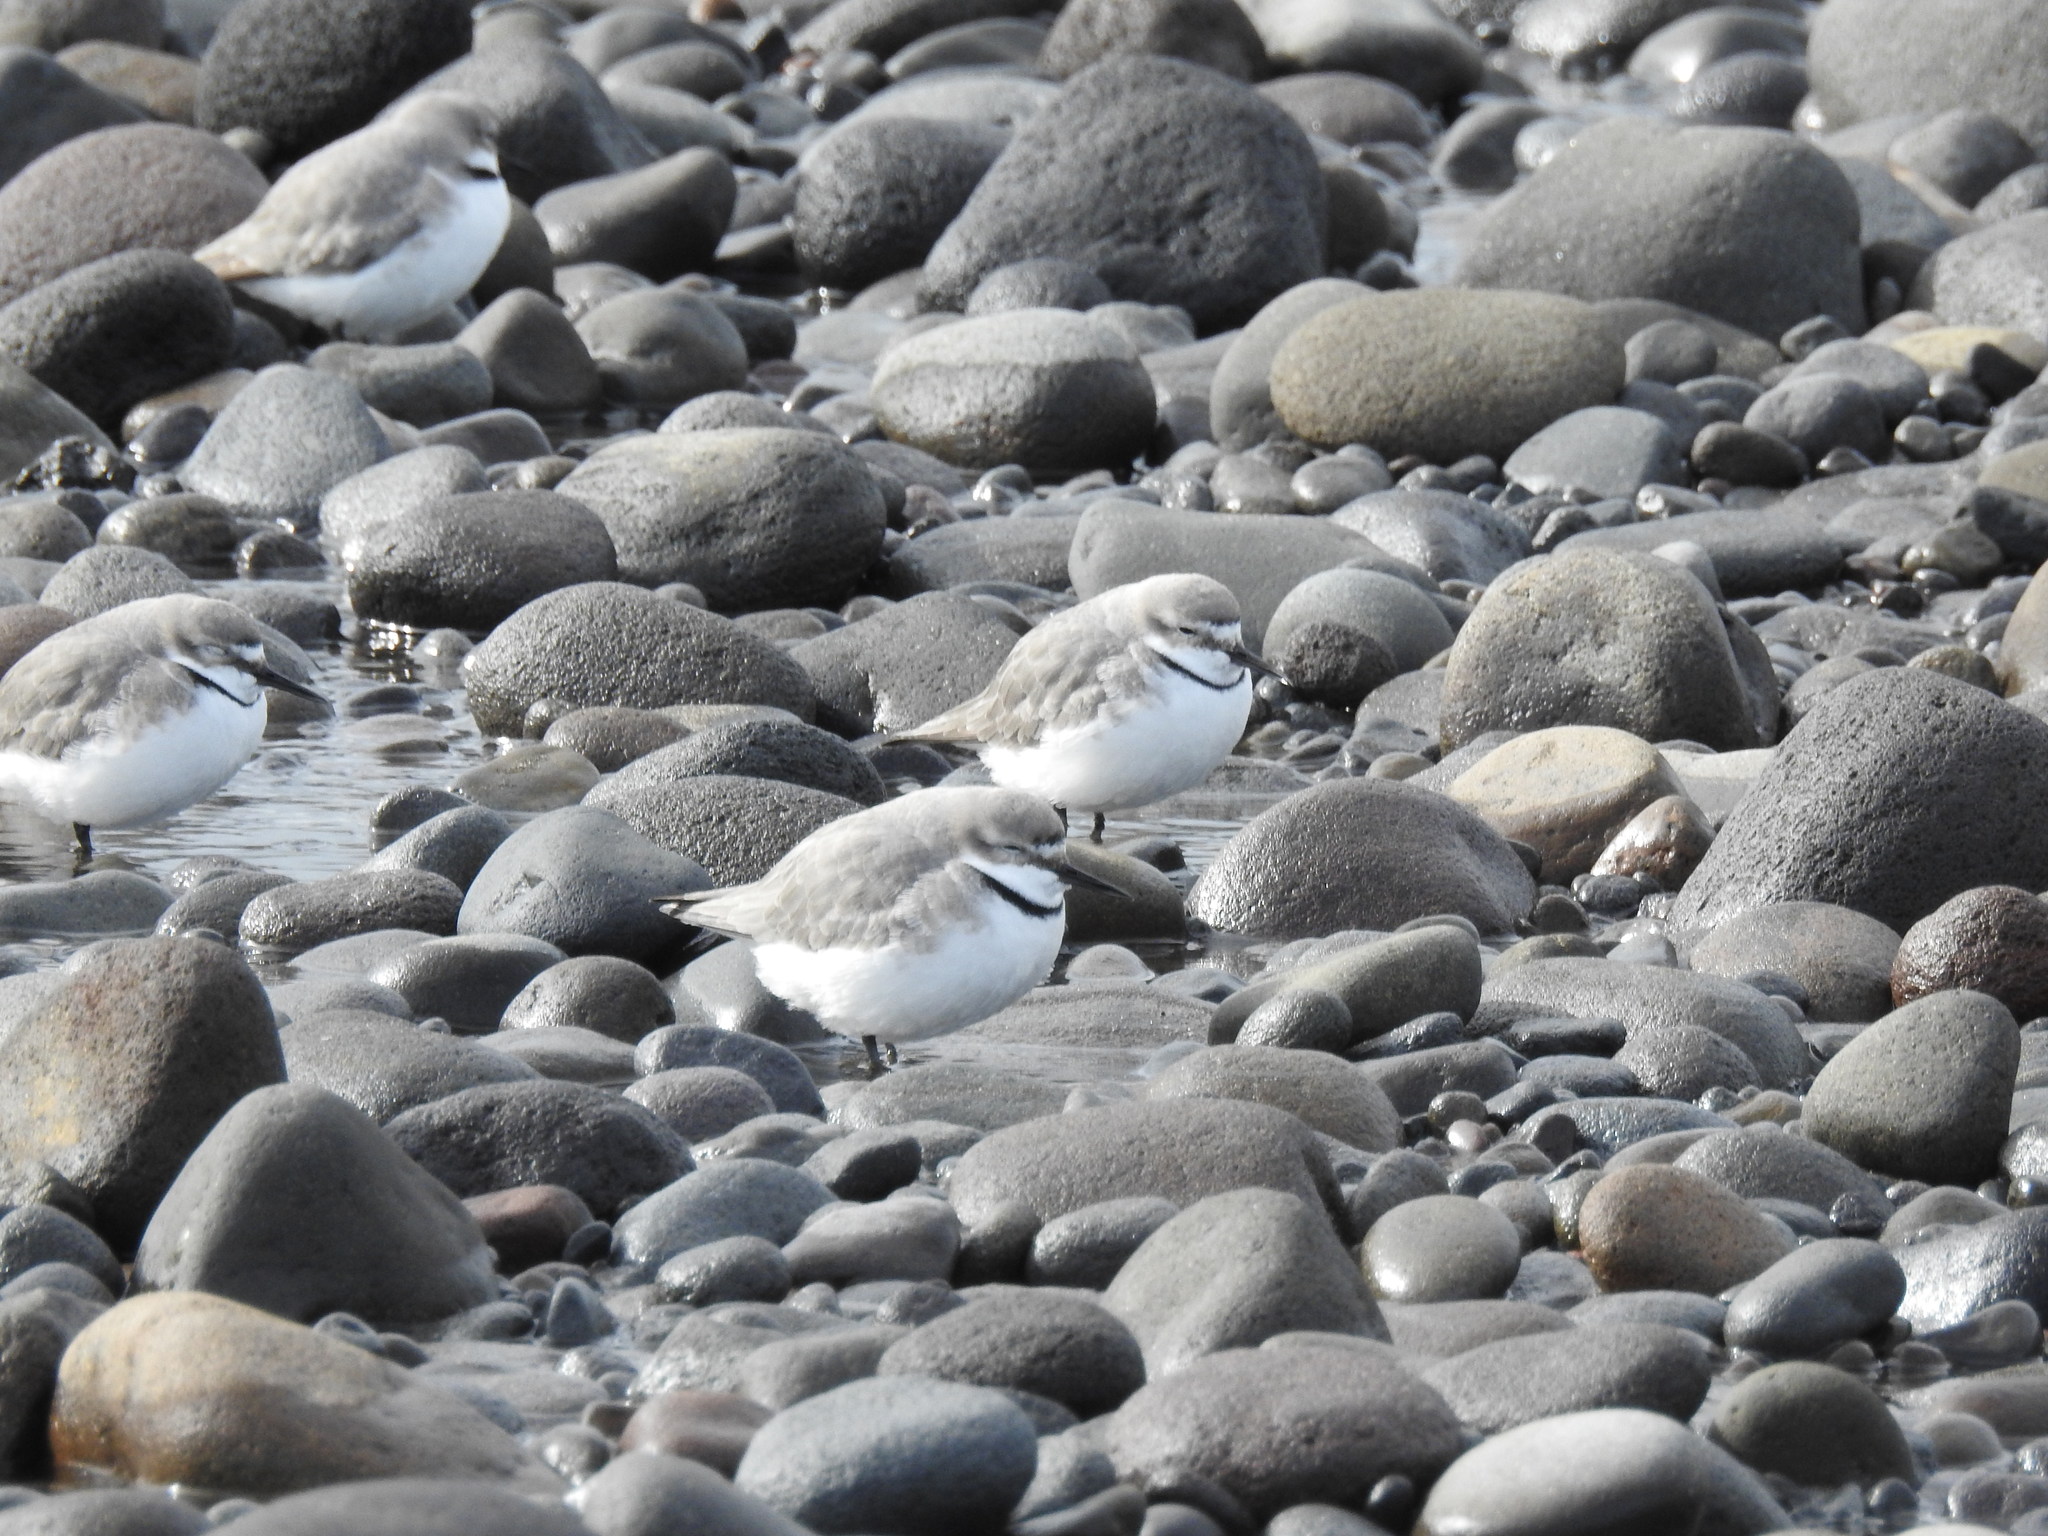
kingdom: Animalia
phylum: Chordata
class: Aves
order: Charadriiformes
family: Charadriidae
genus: Anarhynchus
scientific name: Anarhynchus frontalis
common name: Wrybill
